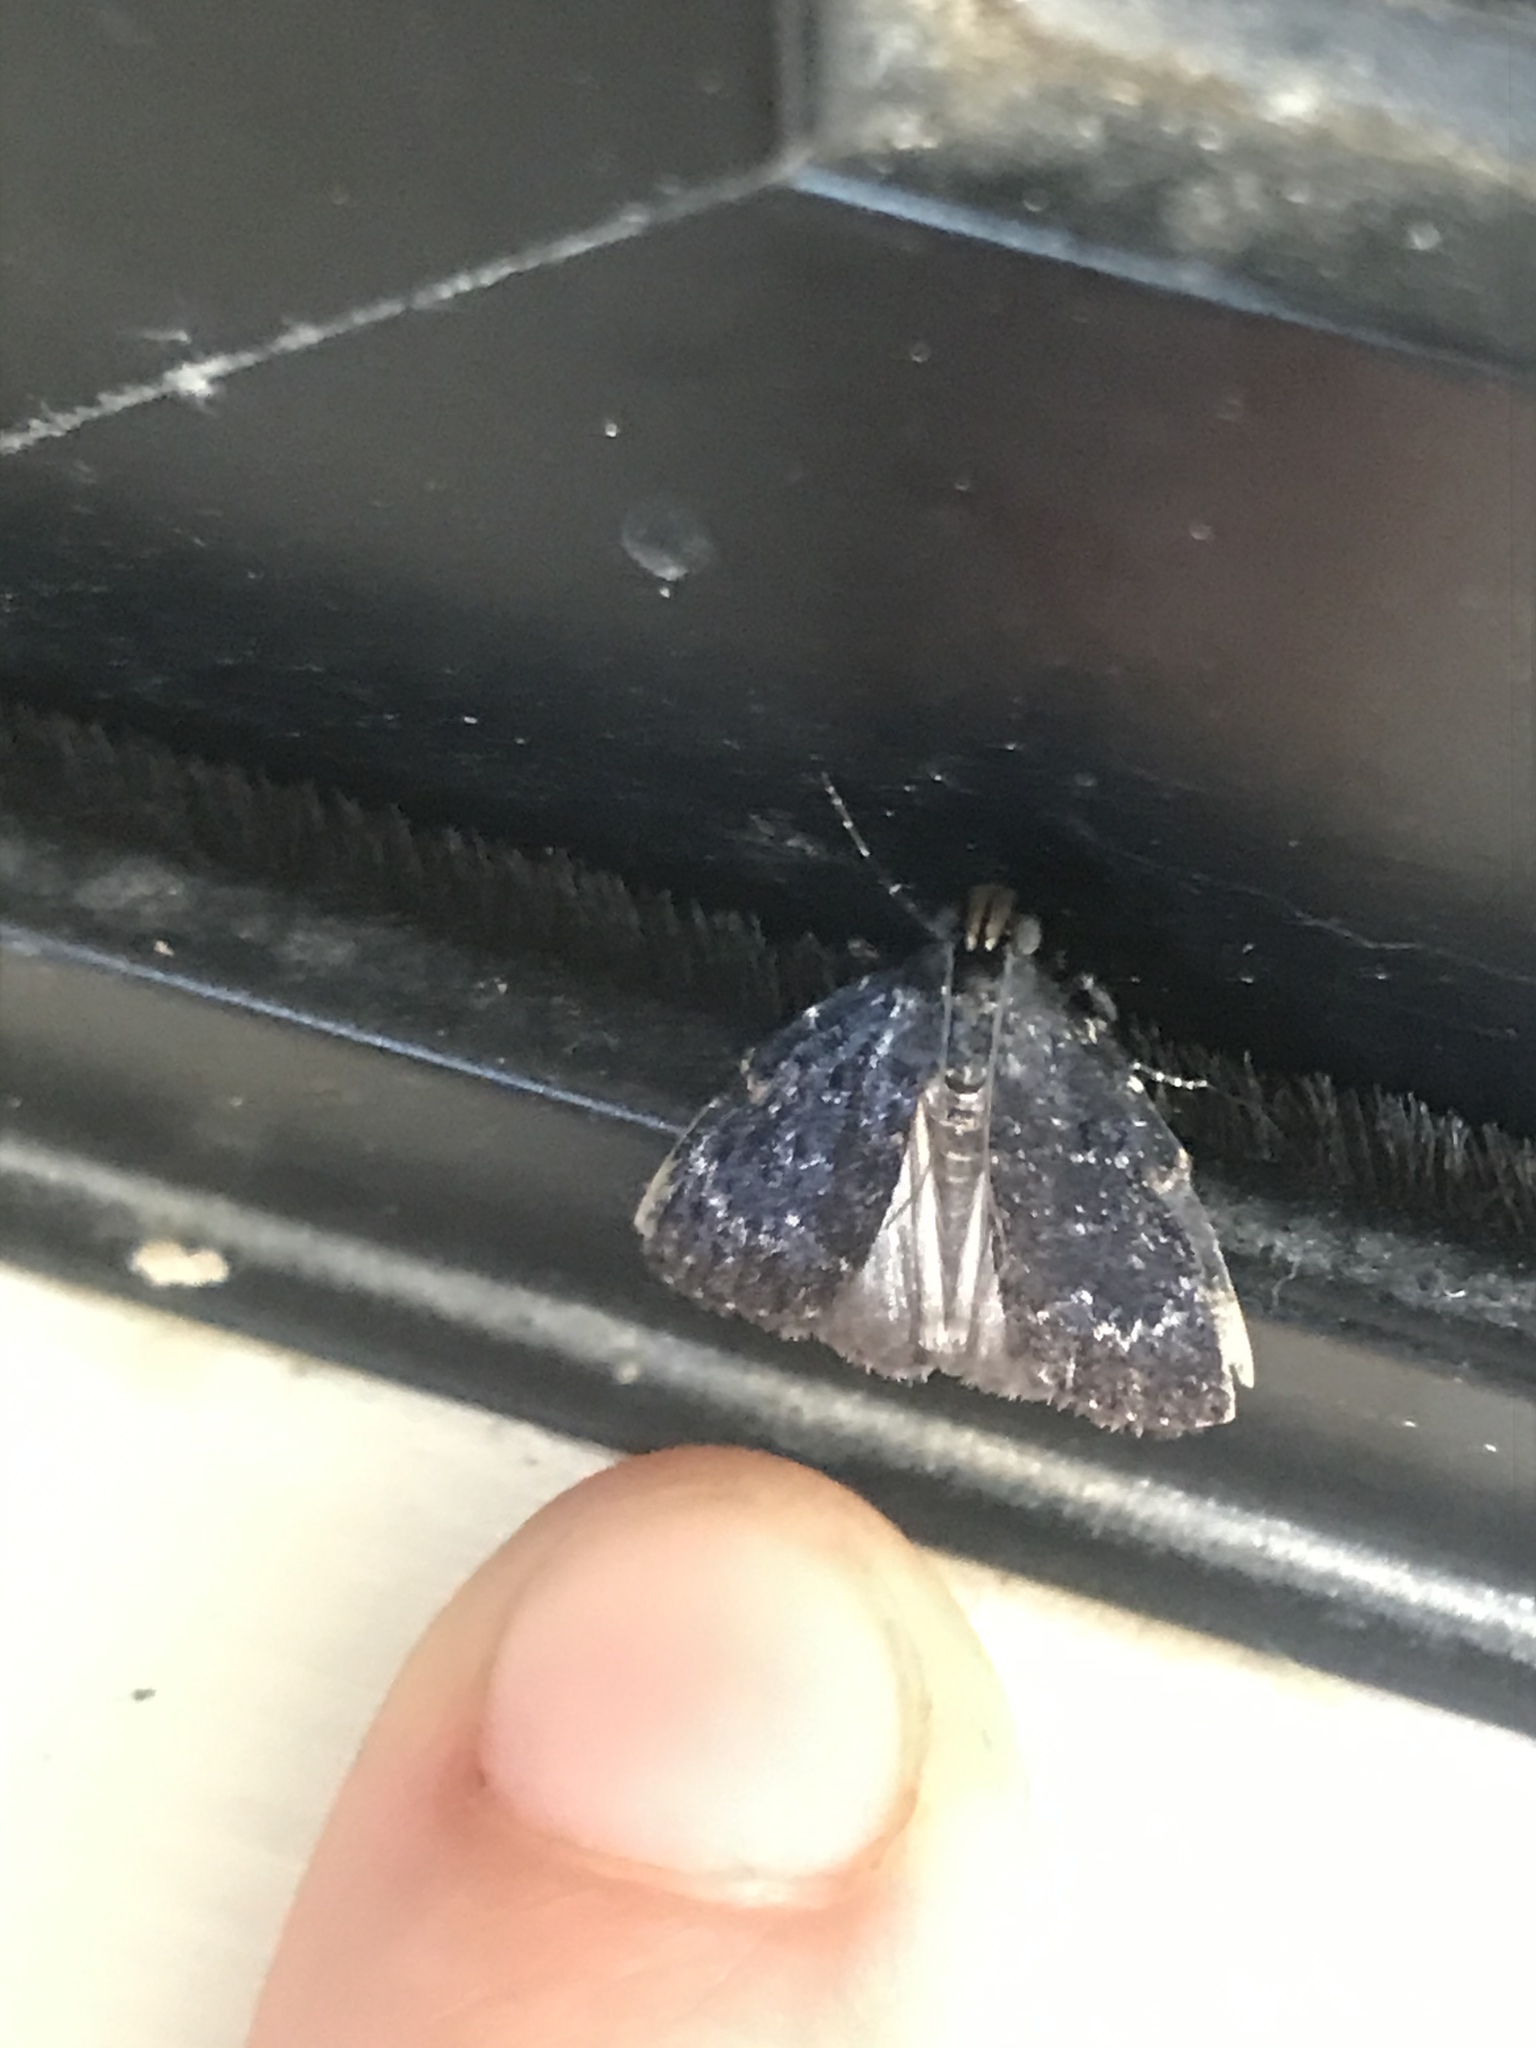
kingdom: Animalia
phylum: Arthropoda
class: Insecta
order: Lepidoptera
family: Pyralidae
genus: Stericta
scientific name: Stericta carbonalis
